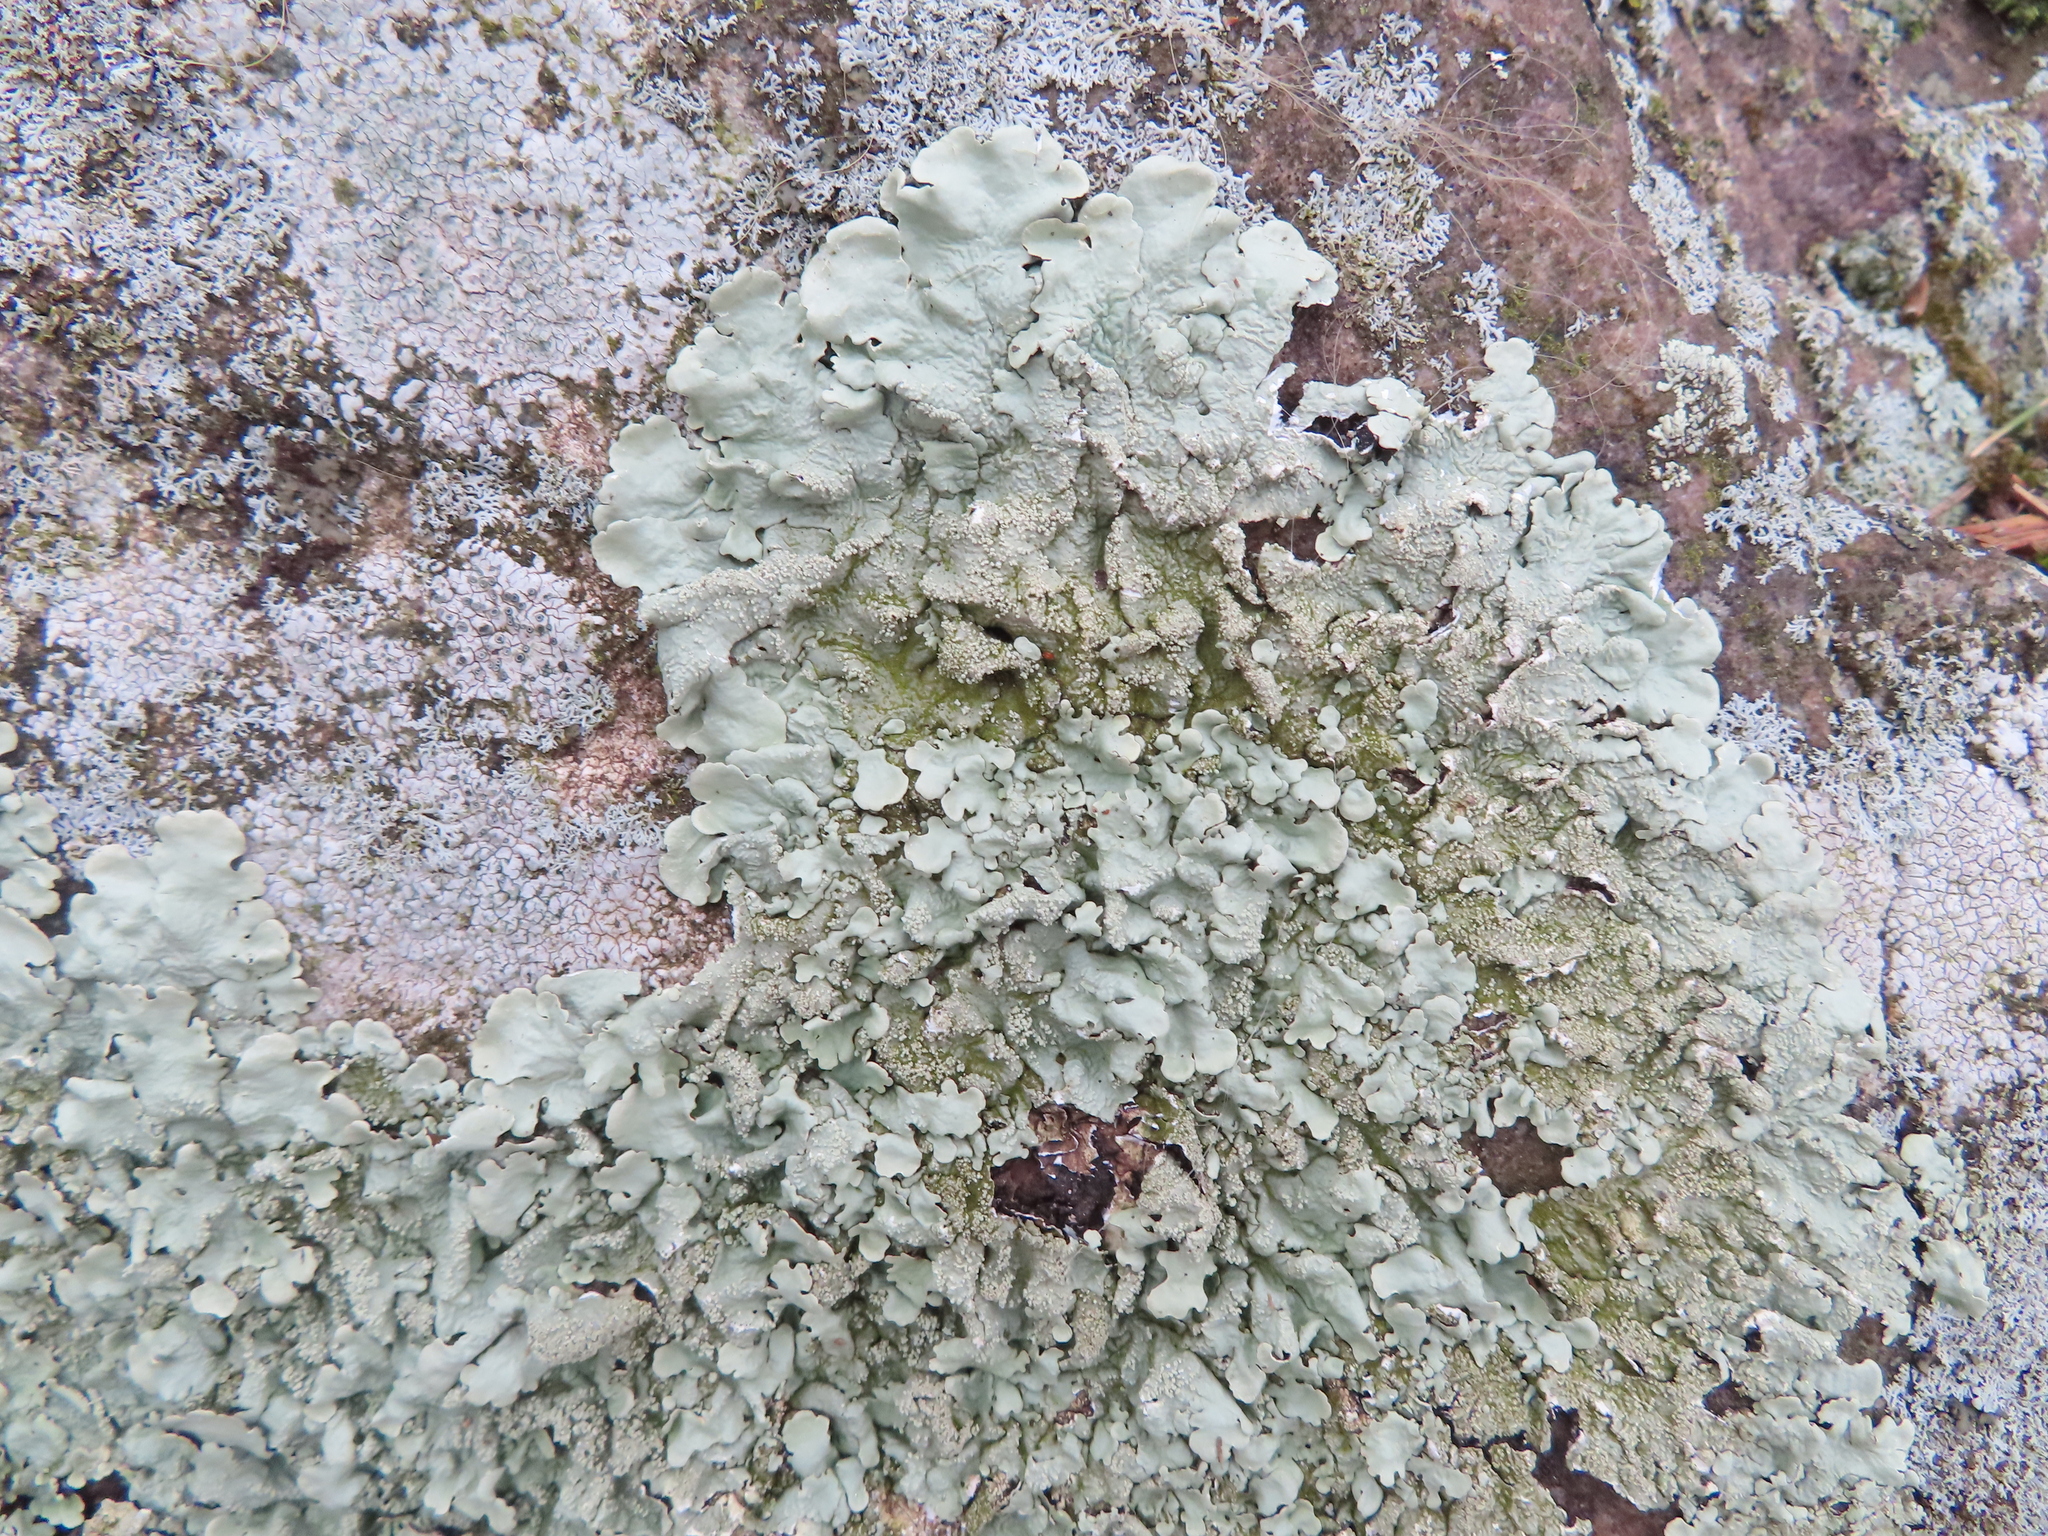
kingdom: Fungi
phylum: Ascomycota
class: Lecanoromycetes
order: Lecanorales
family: Parmeliaceae
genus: Flavoparmelia
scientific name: Flavoparmelia baltimorensis
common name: Rock greenshield
